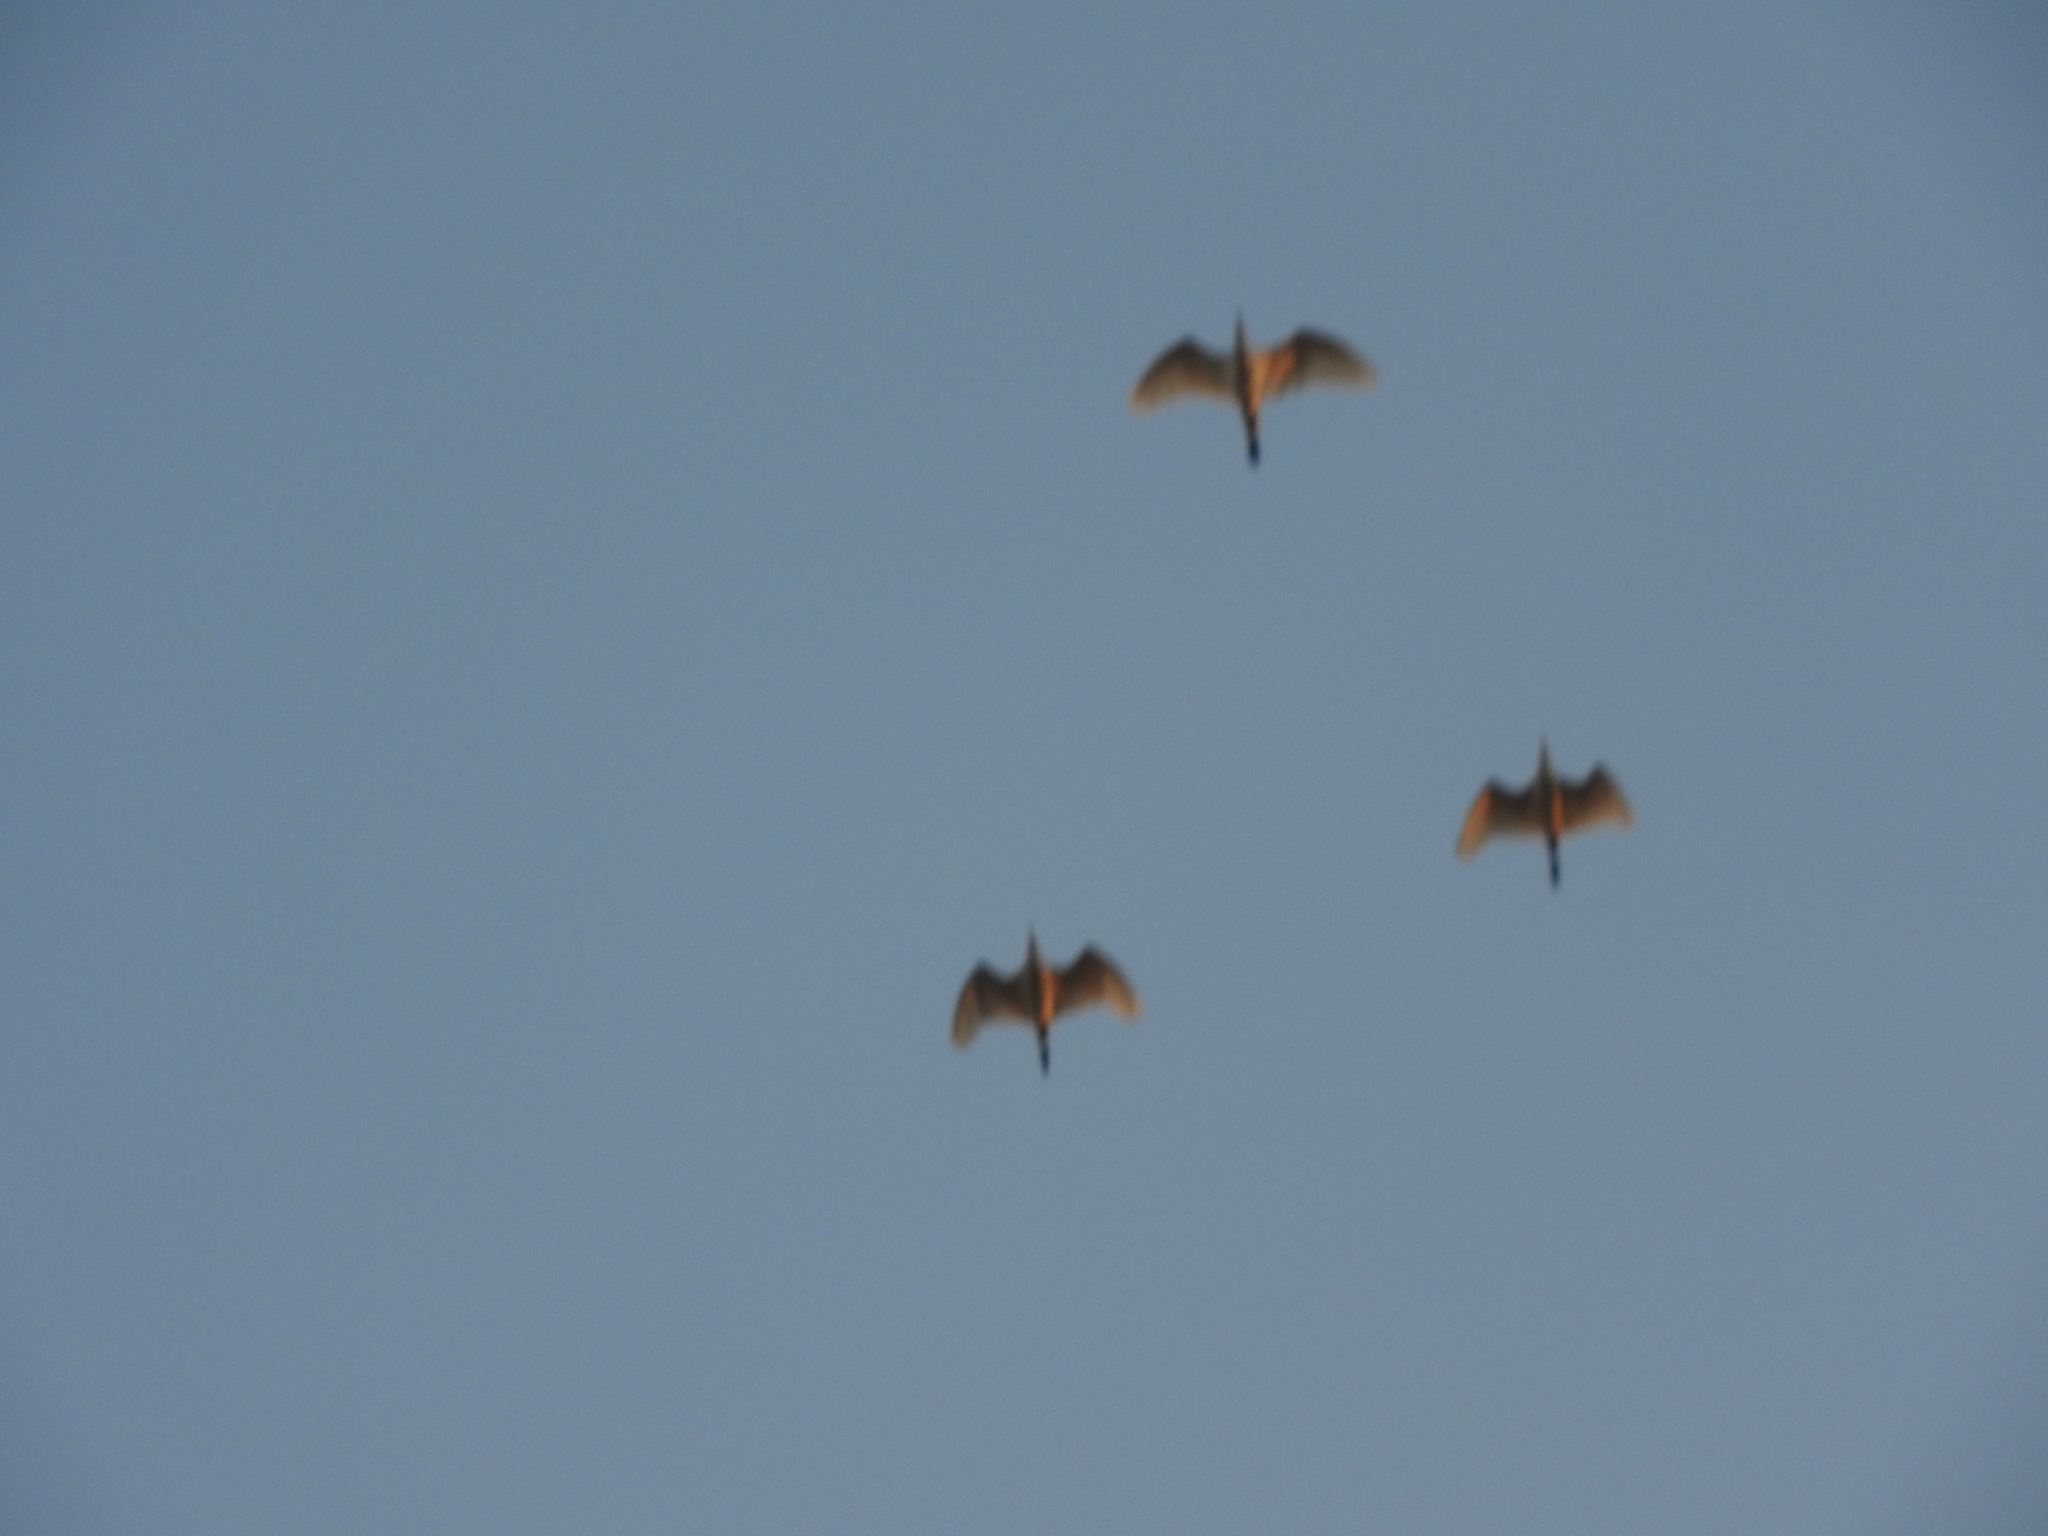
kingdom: Animalia
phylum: Chordata
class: Aves
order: Pelecaniformes
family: Ardeidae
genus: Bubulcus
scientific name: Bubulcus ibis
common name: Cattle egret
